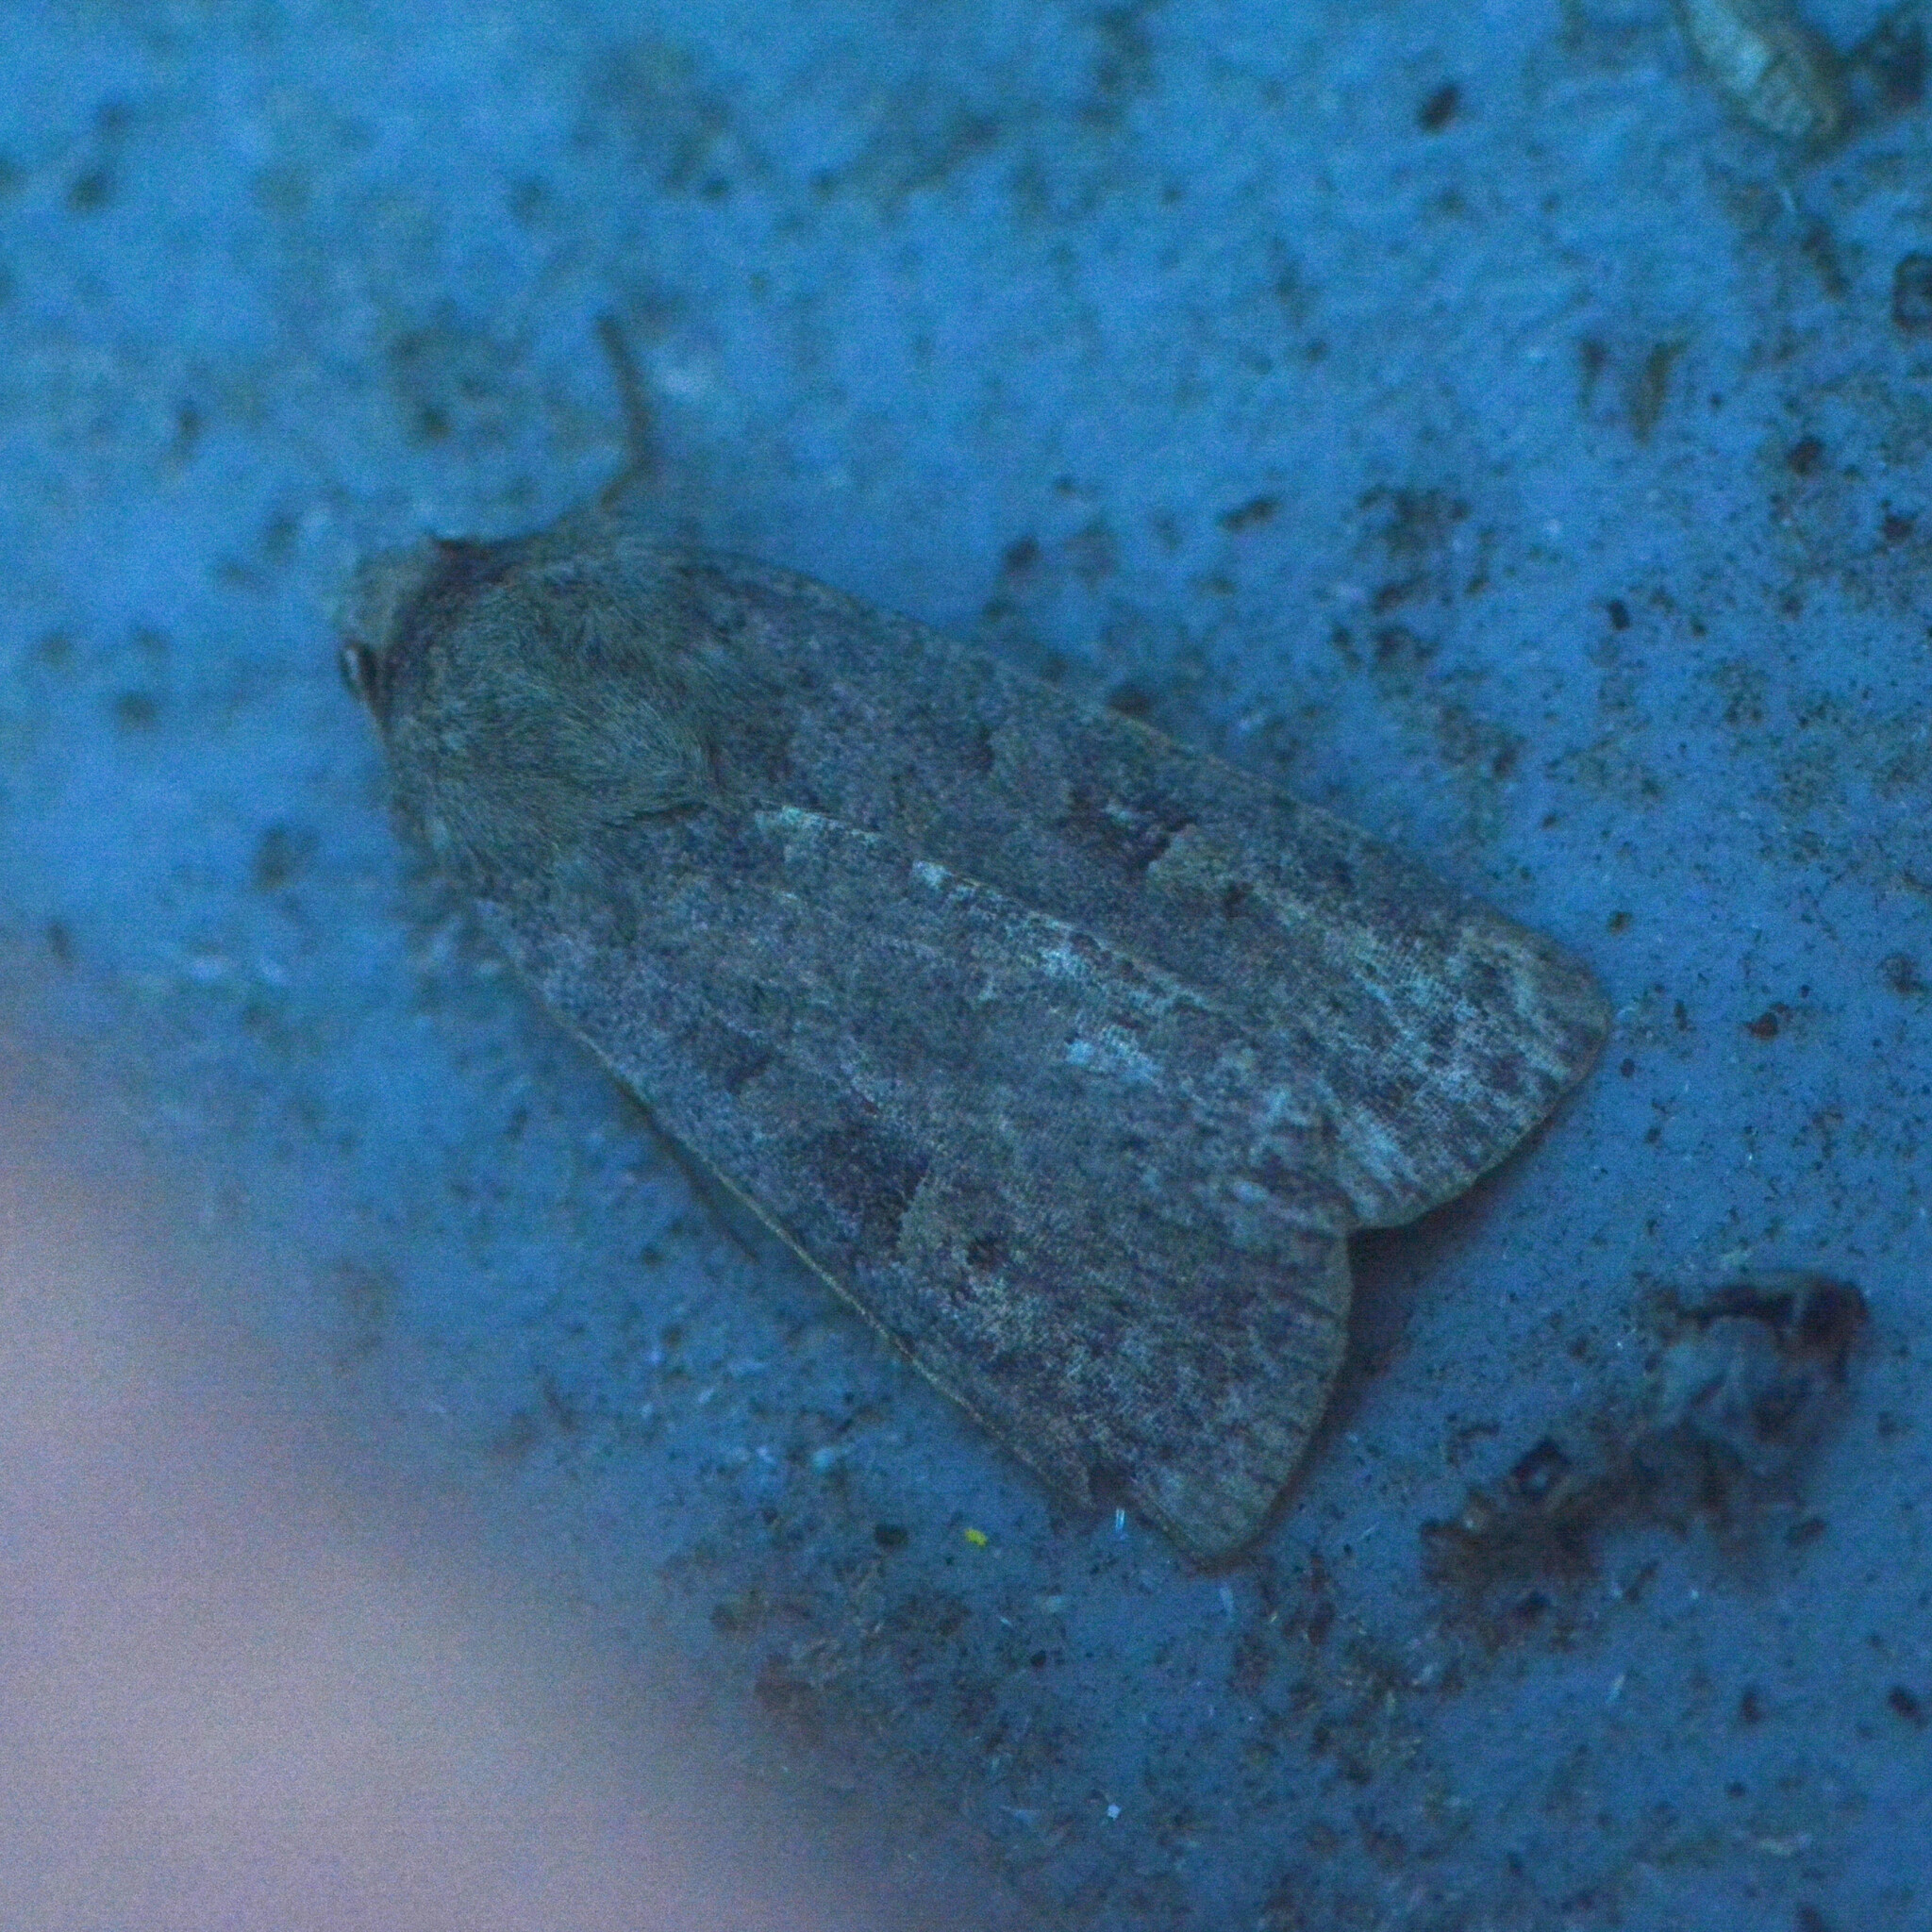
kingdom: Animalia
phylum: Arthropoda
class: Insecta
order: Lepidoptera
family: Noctuidae
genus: Xestia
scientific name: Xestia xanthographa
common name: Square-spot rustic
